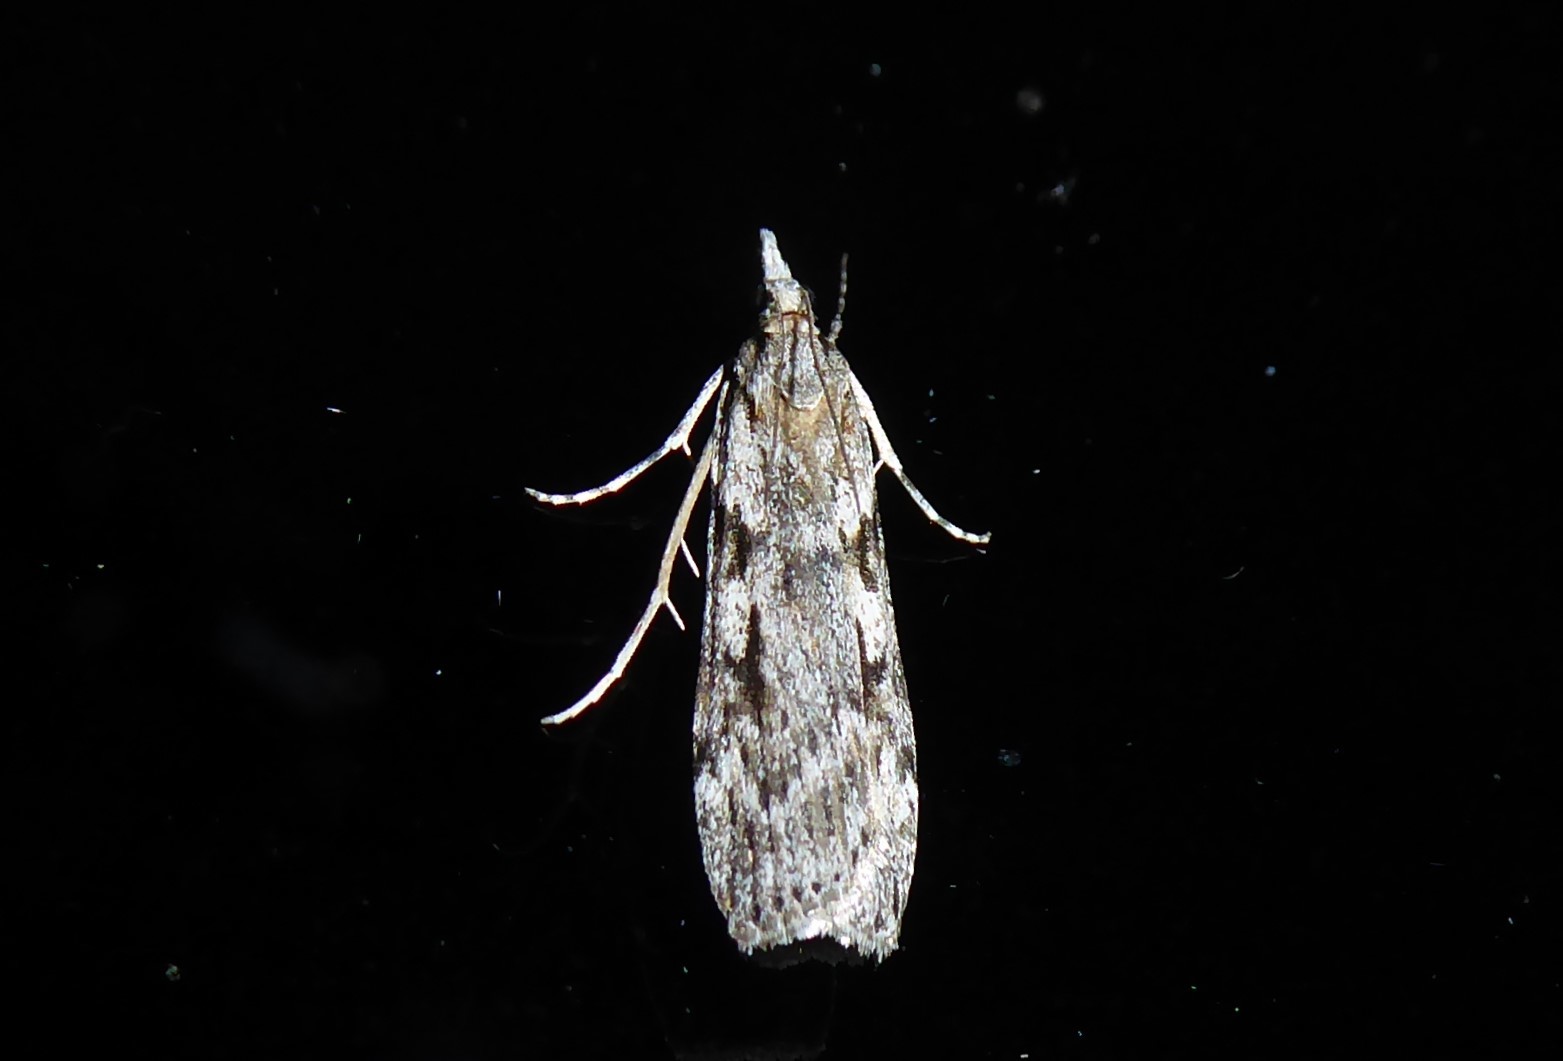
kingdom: Animalia
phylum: Arthropoda
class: Insecta
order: Lepidoptera
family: Crambidae
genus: Scoparia
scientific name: Scoparia halopis
